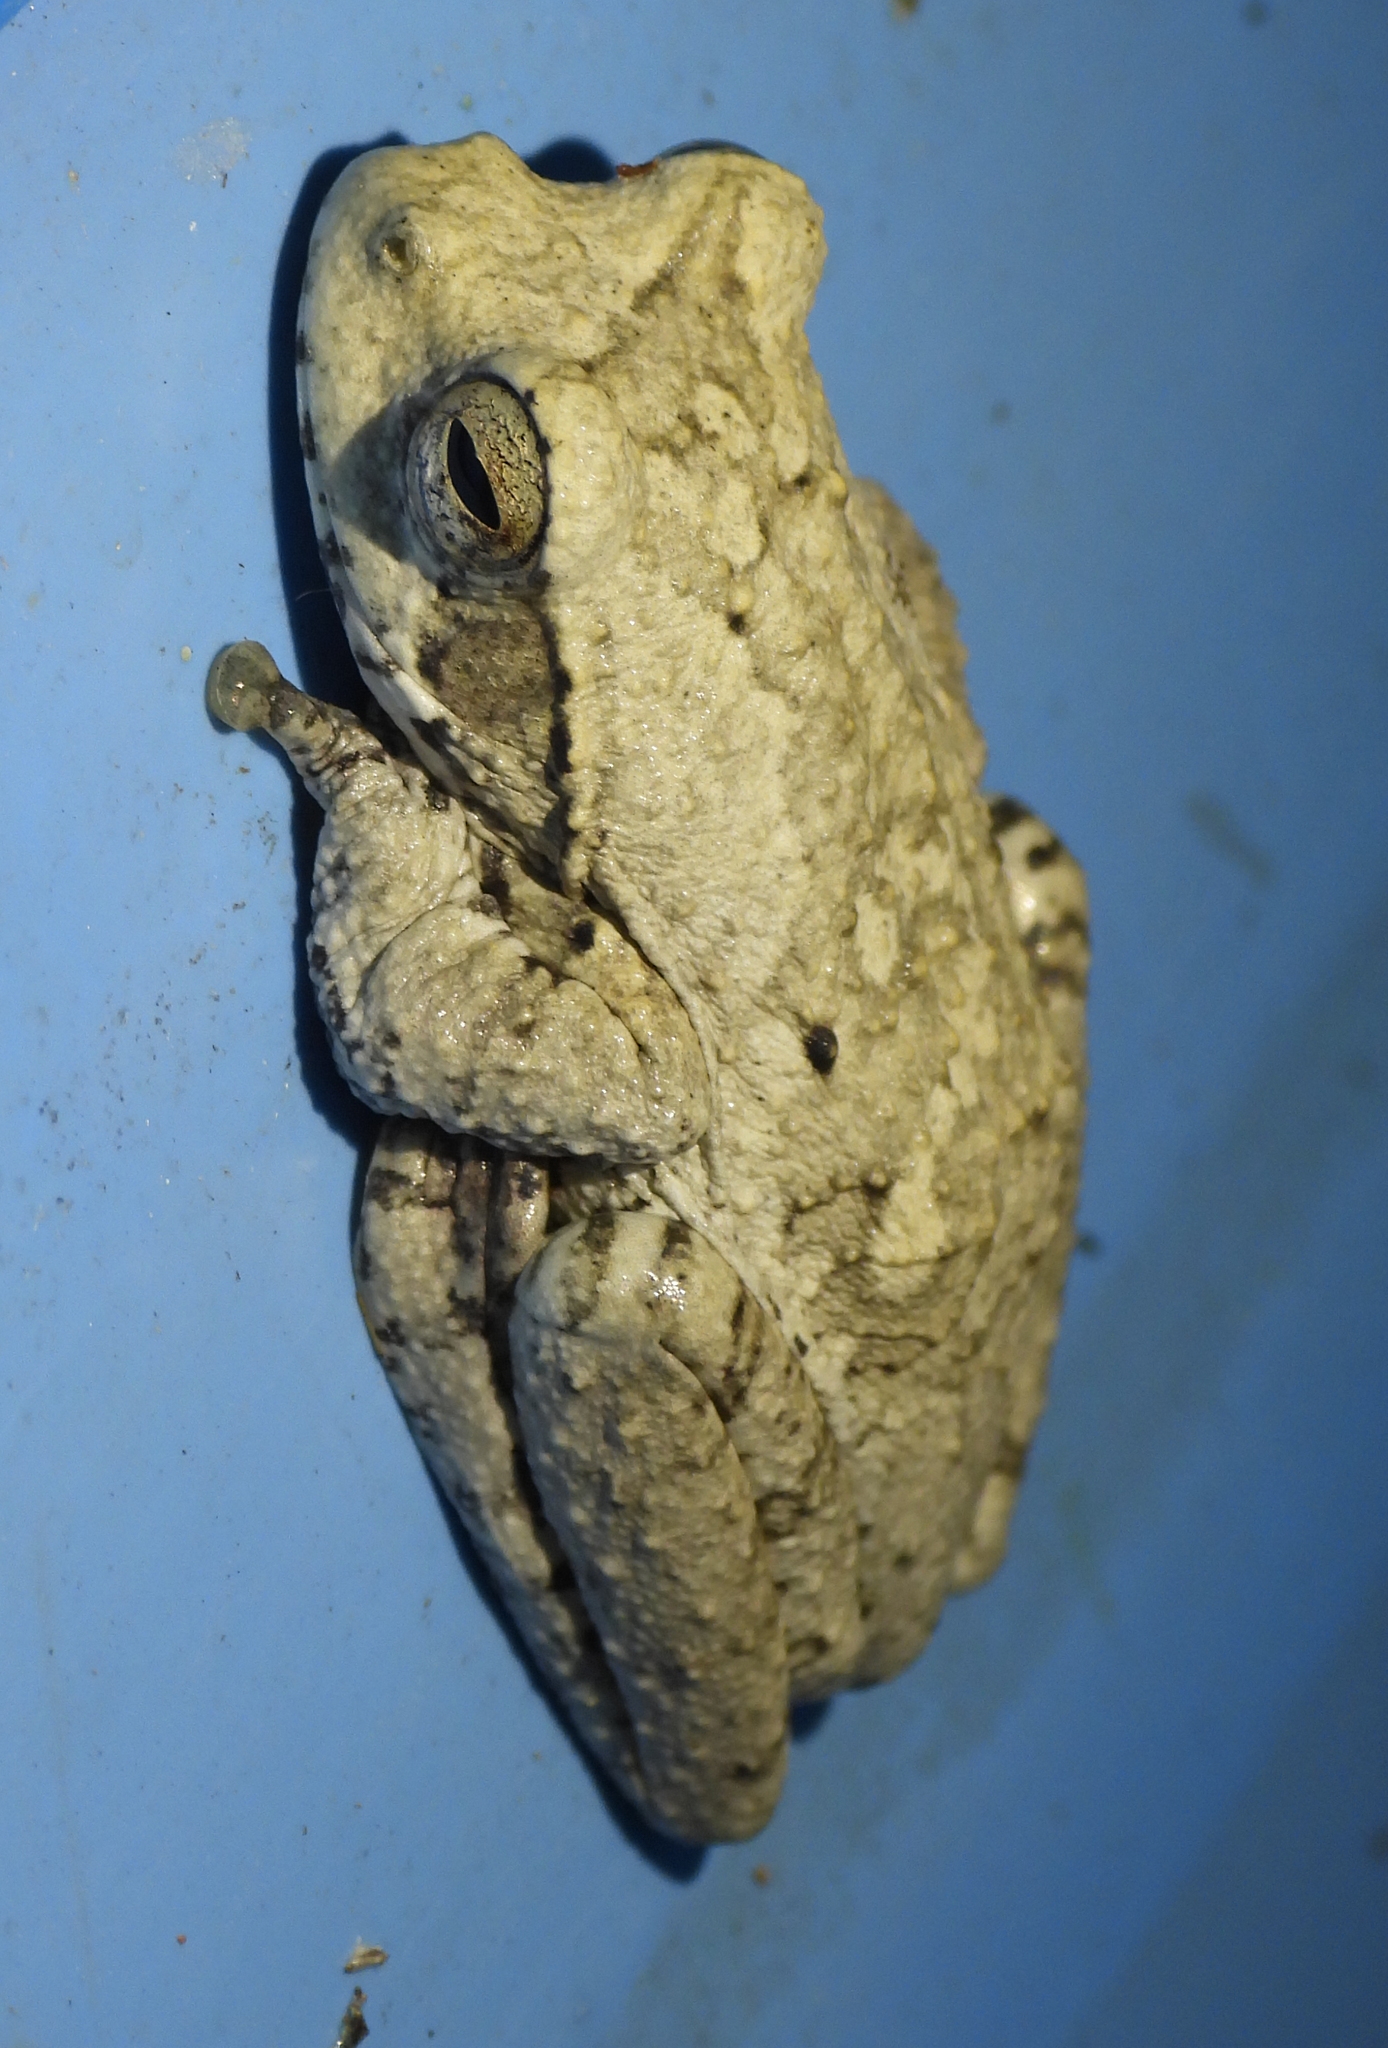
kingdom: Animalia
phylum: Chordata
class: Amphibia
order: Anura
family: Rhacophoridae
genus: Chiromantis
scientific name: Chiromantis xerampelina
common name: African gray treefrog
